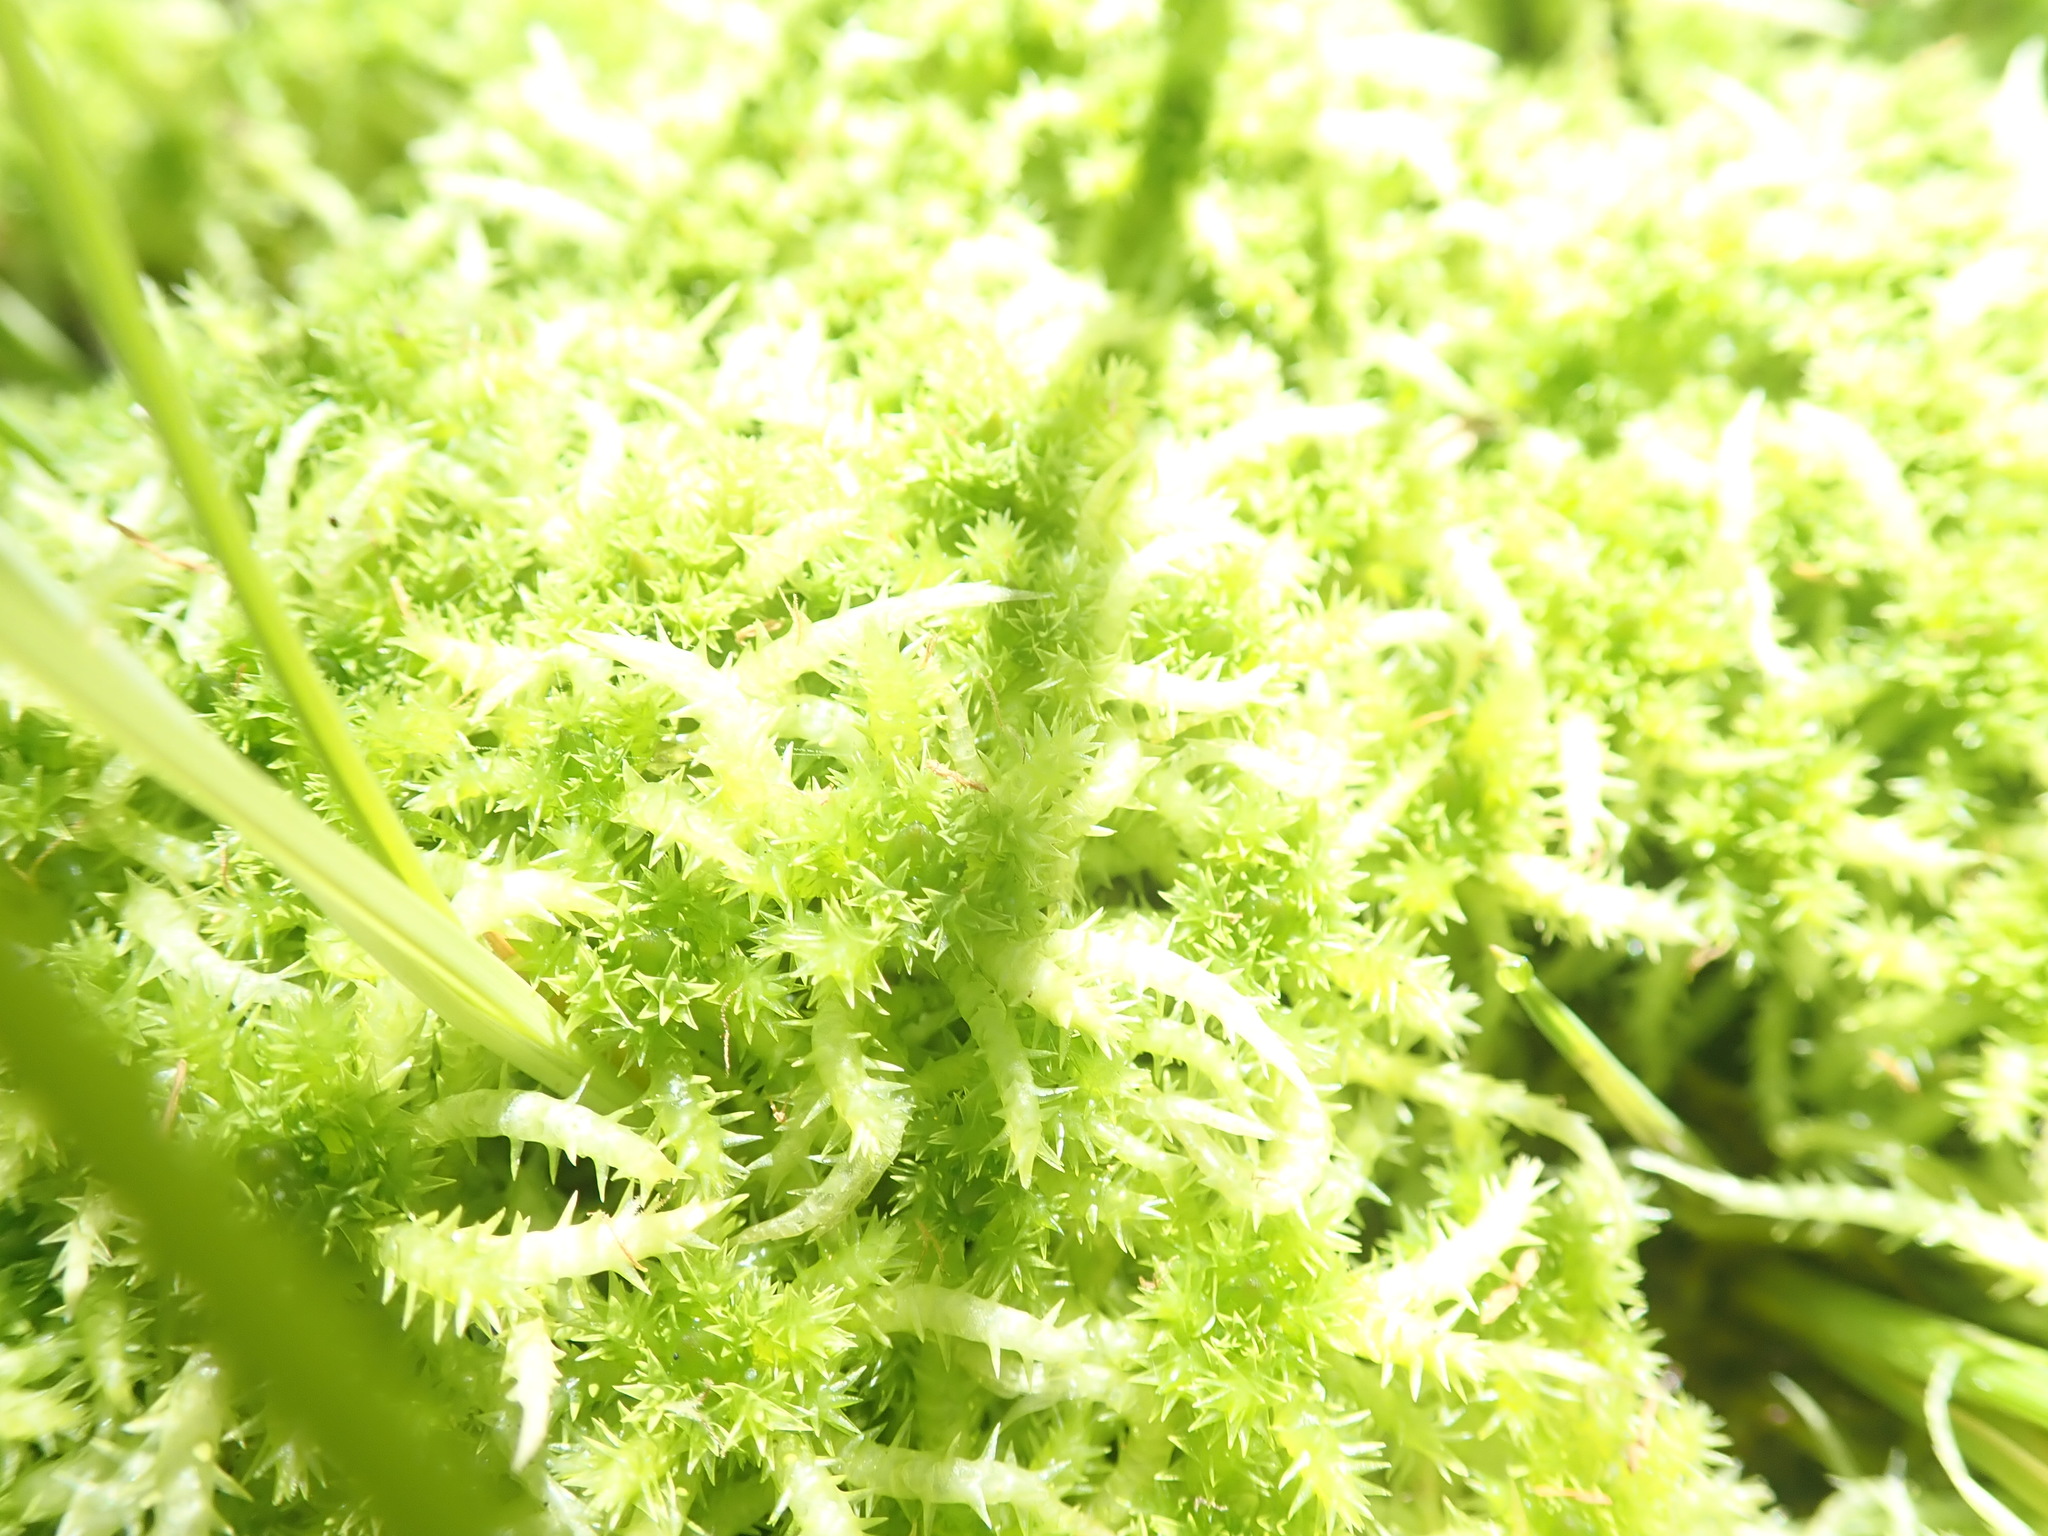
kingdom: Plantae
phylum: Bryophyta
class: Sphagnopsida
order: Sphagnales
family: Sphagnaceae
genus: Sphagnum
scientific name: Sphagnum squarrosum
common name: Shaggy peat moss
